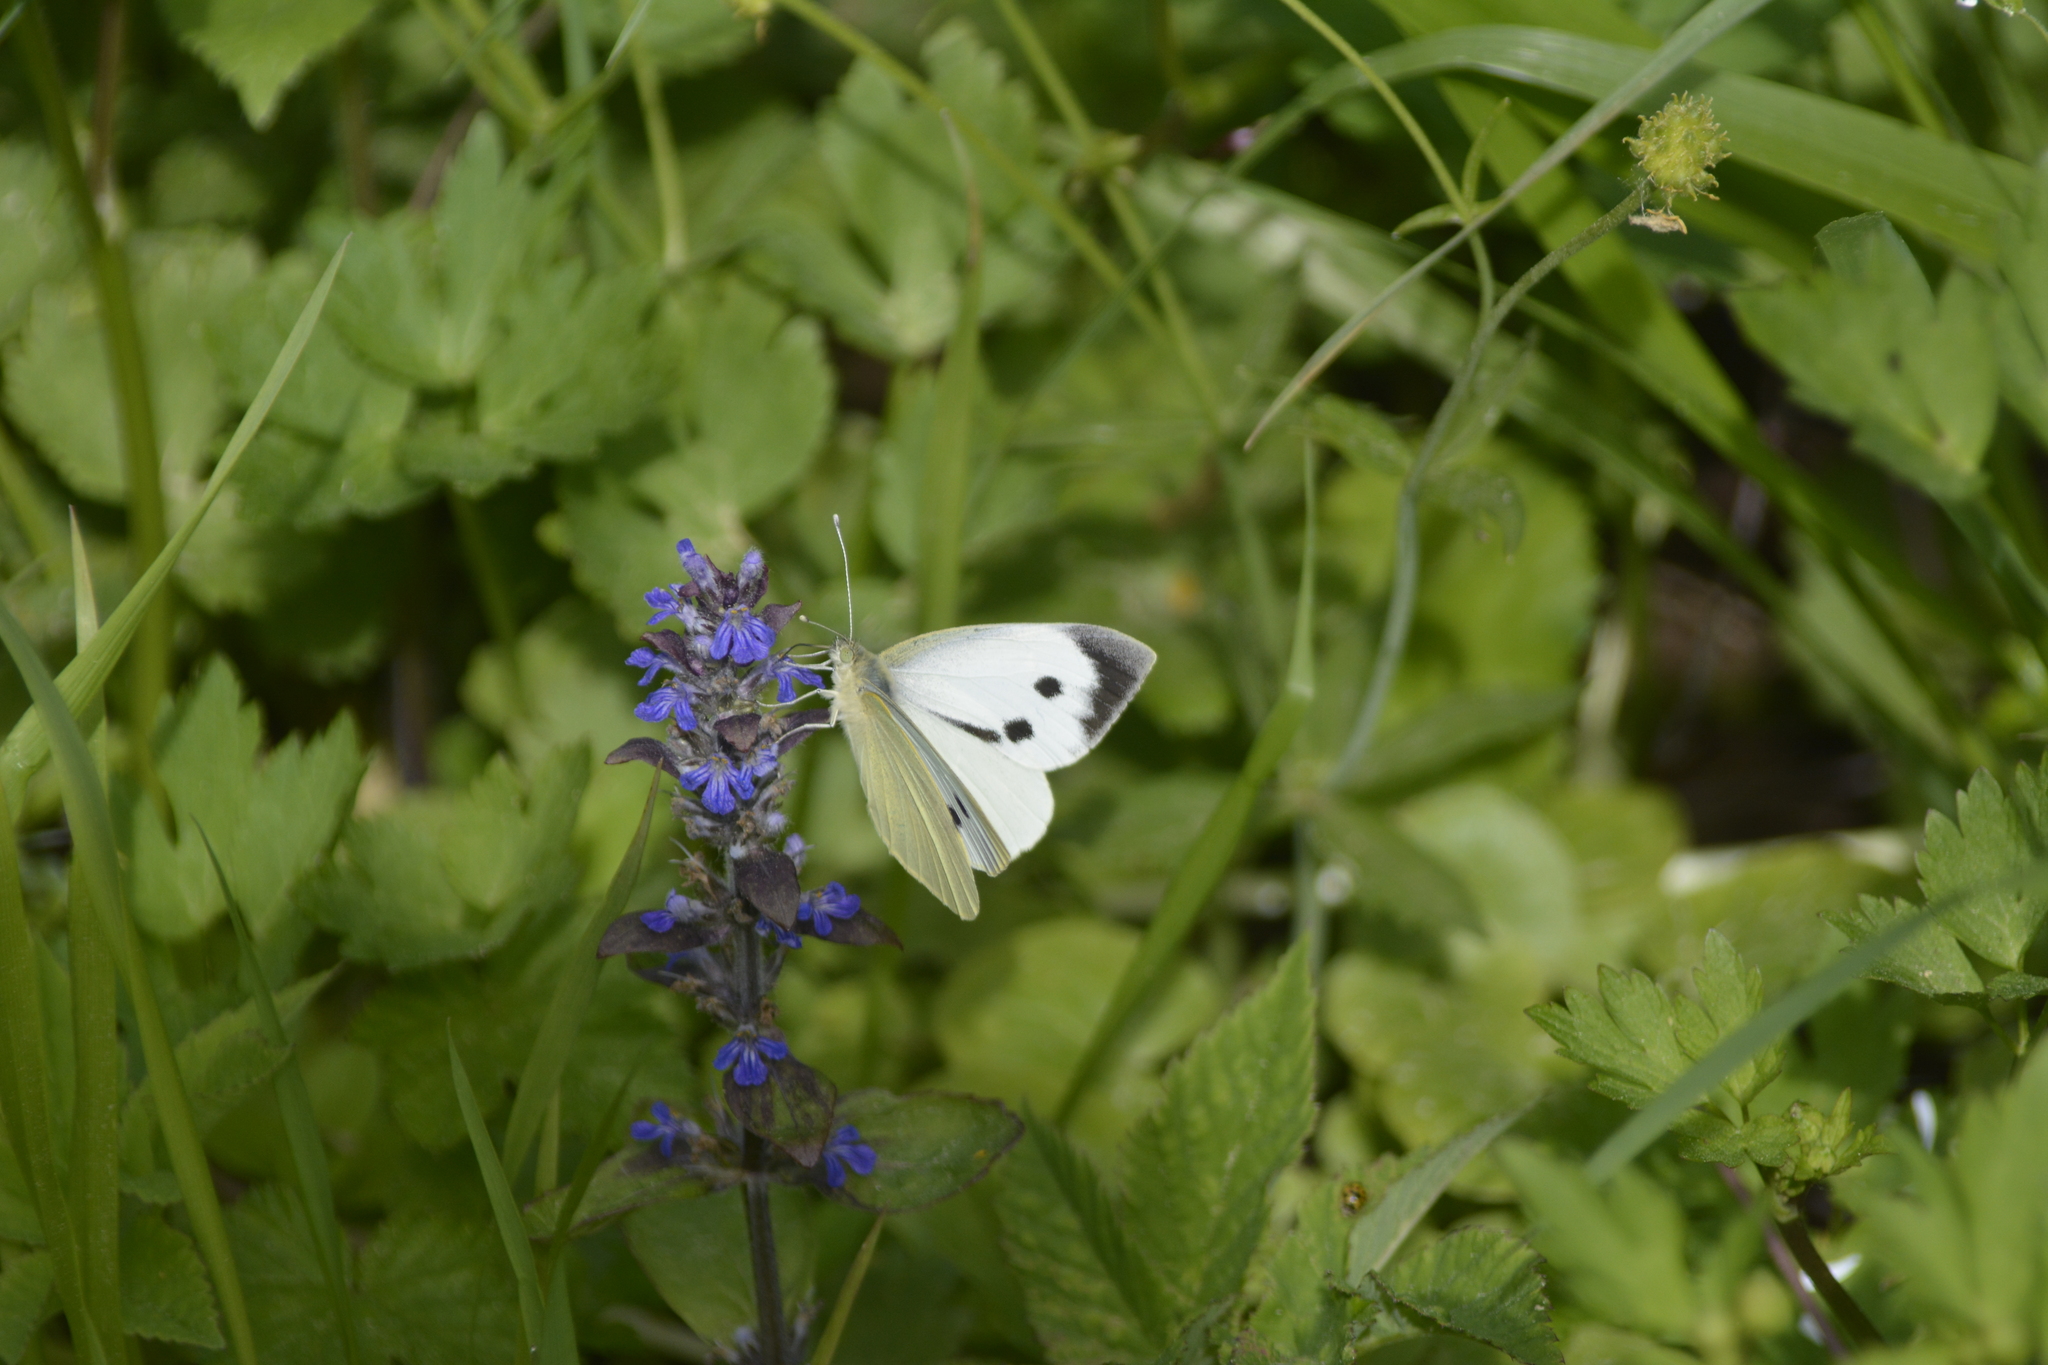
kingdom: Animalia
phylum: Arthropoda
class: Insecta
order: Lepidoptera
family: Pieridae
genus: Pieris
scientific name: Pieris brassicae
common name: Large white
